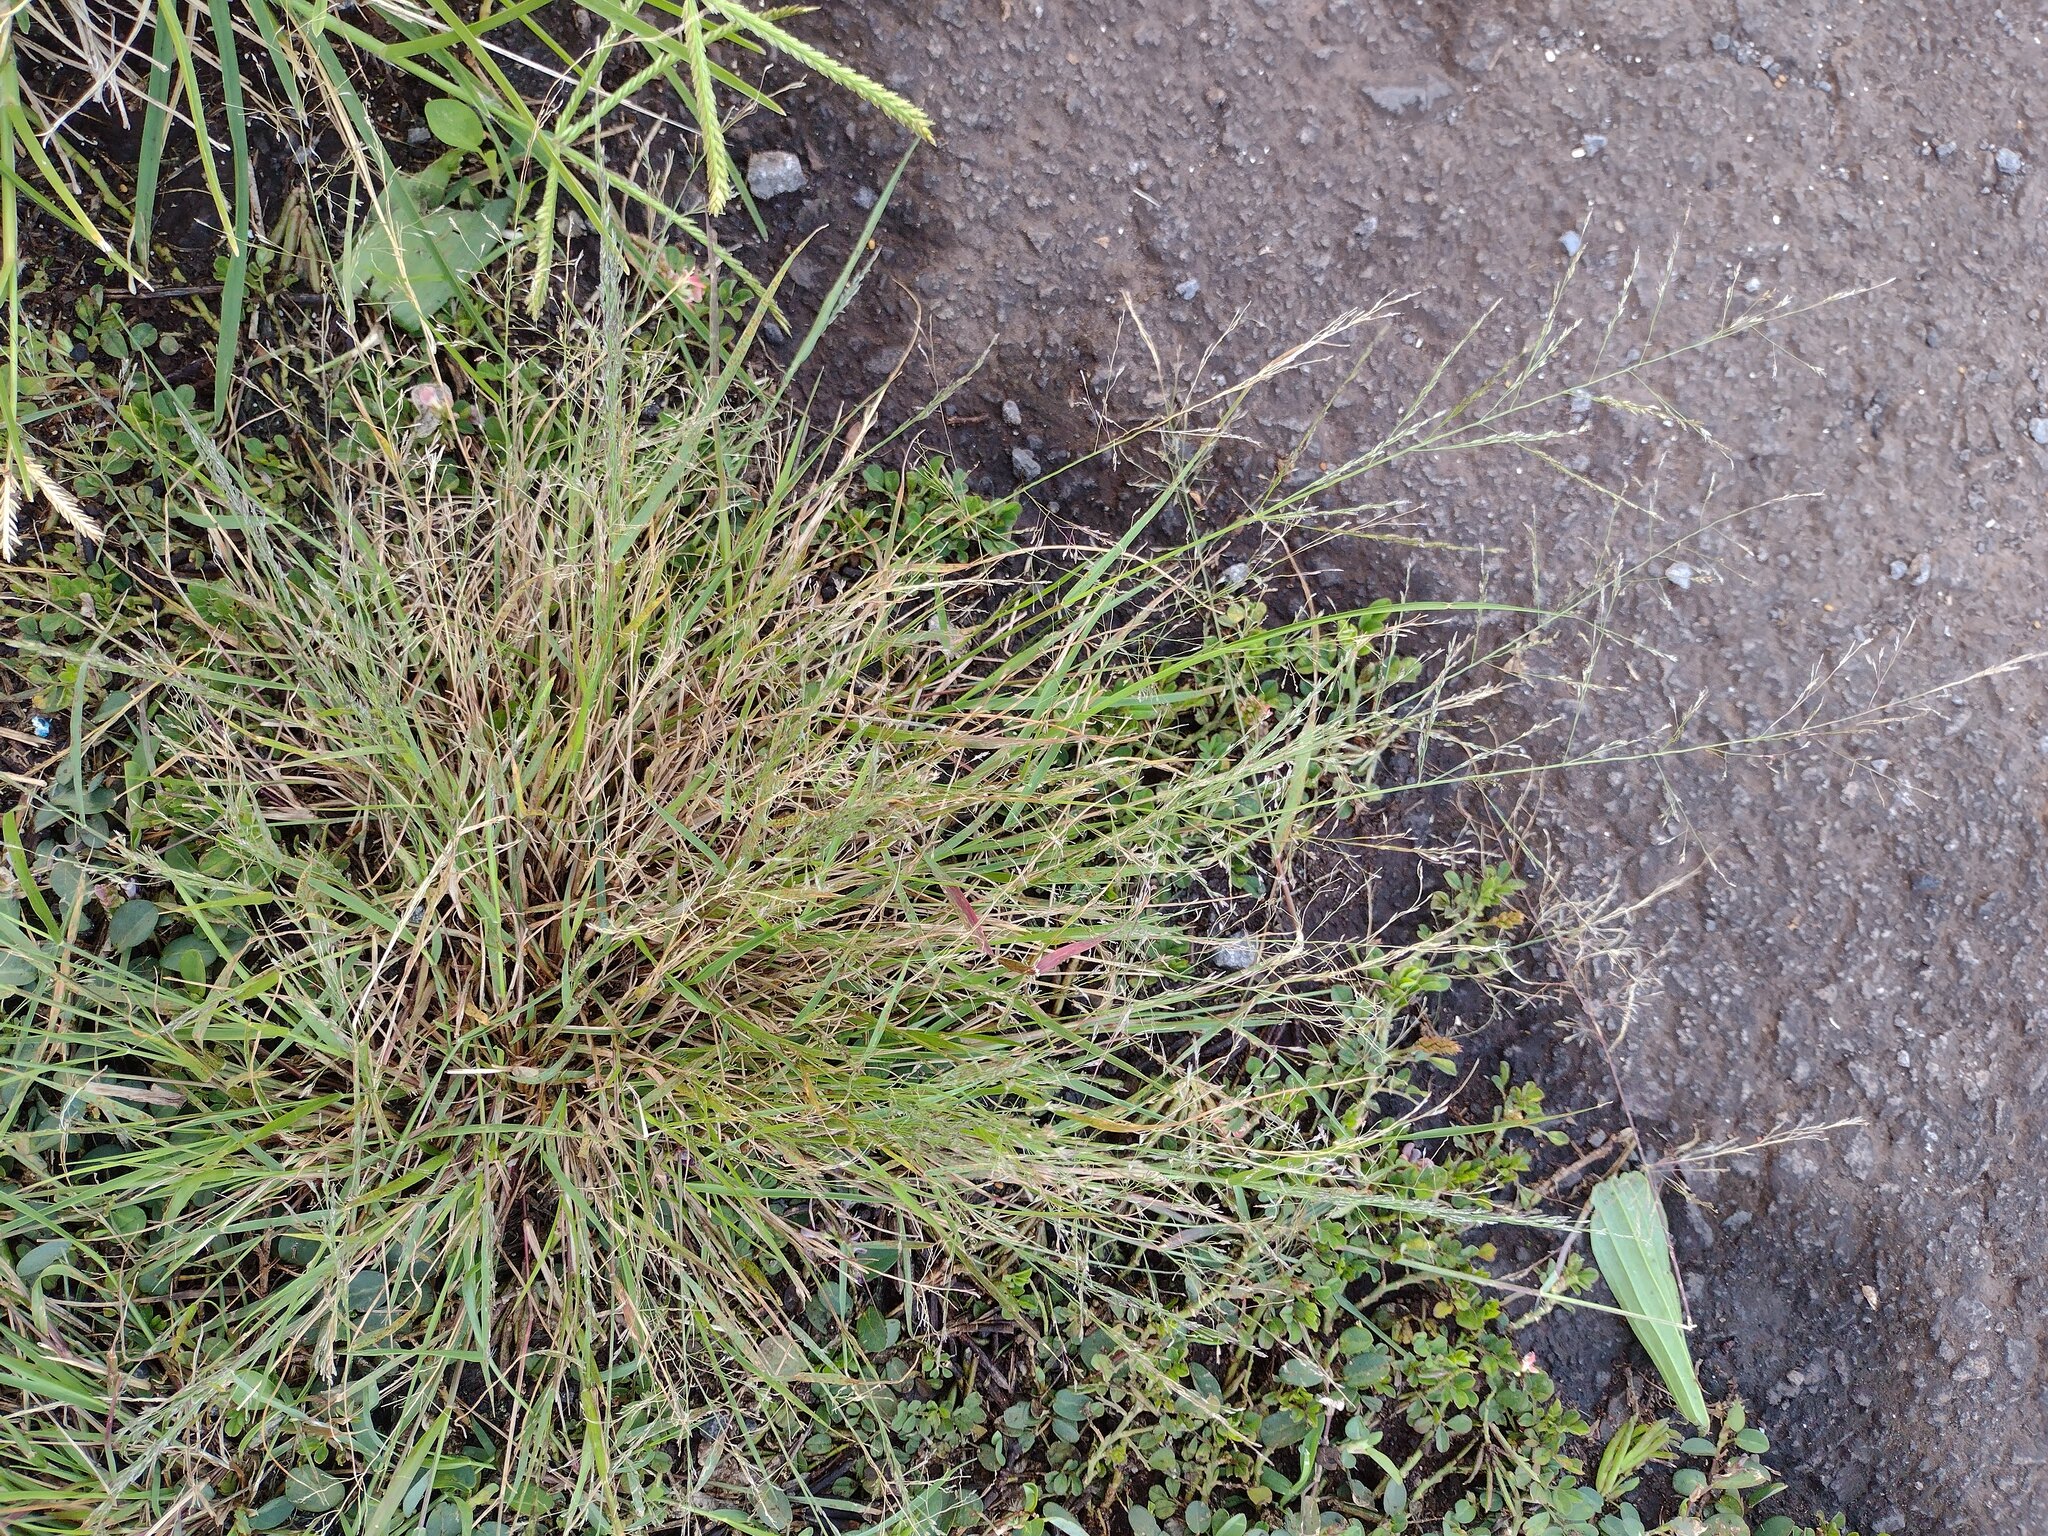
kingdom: Plantae
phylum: Tracheophyta
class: Liliopsida
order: Poales
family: Poaceae
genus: Eragrostis
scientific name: Eragrostis pilosa
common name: Indian lovegrass
